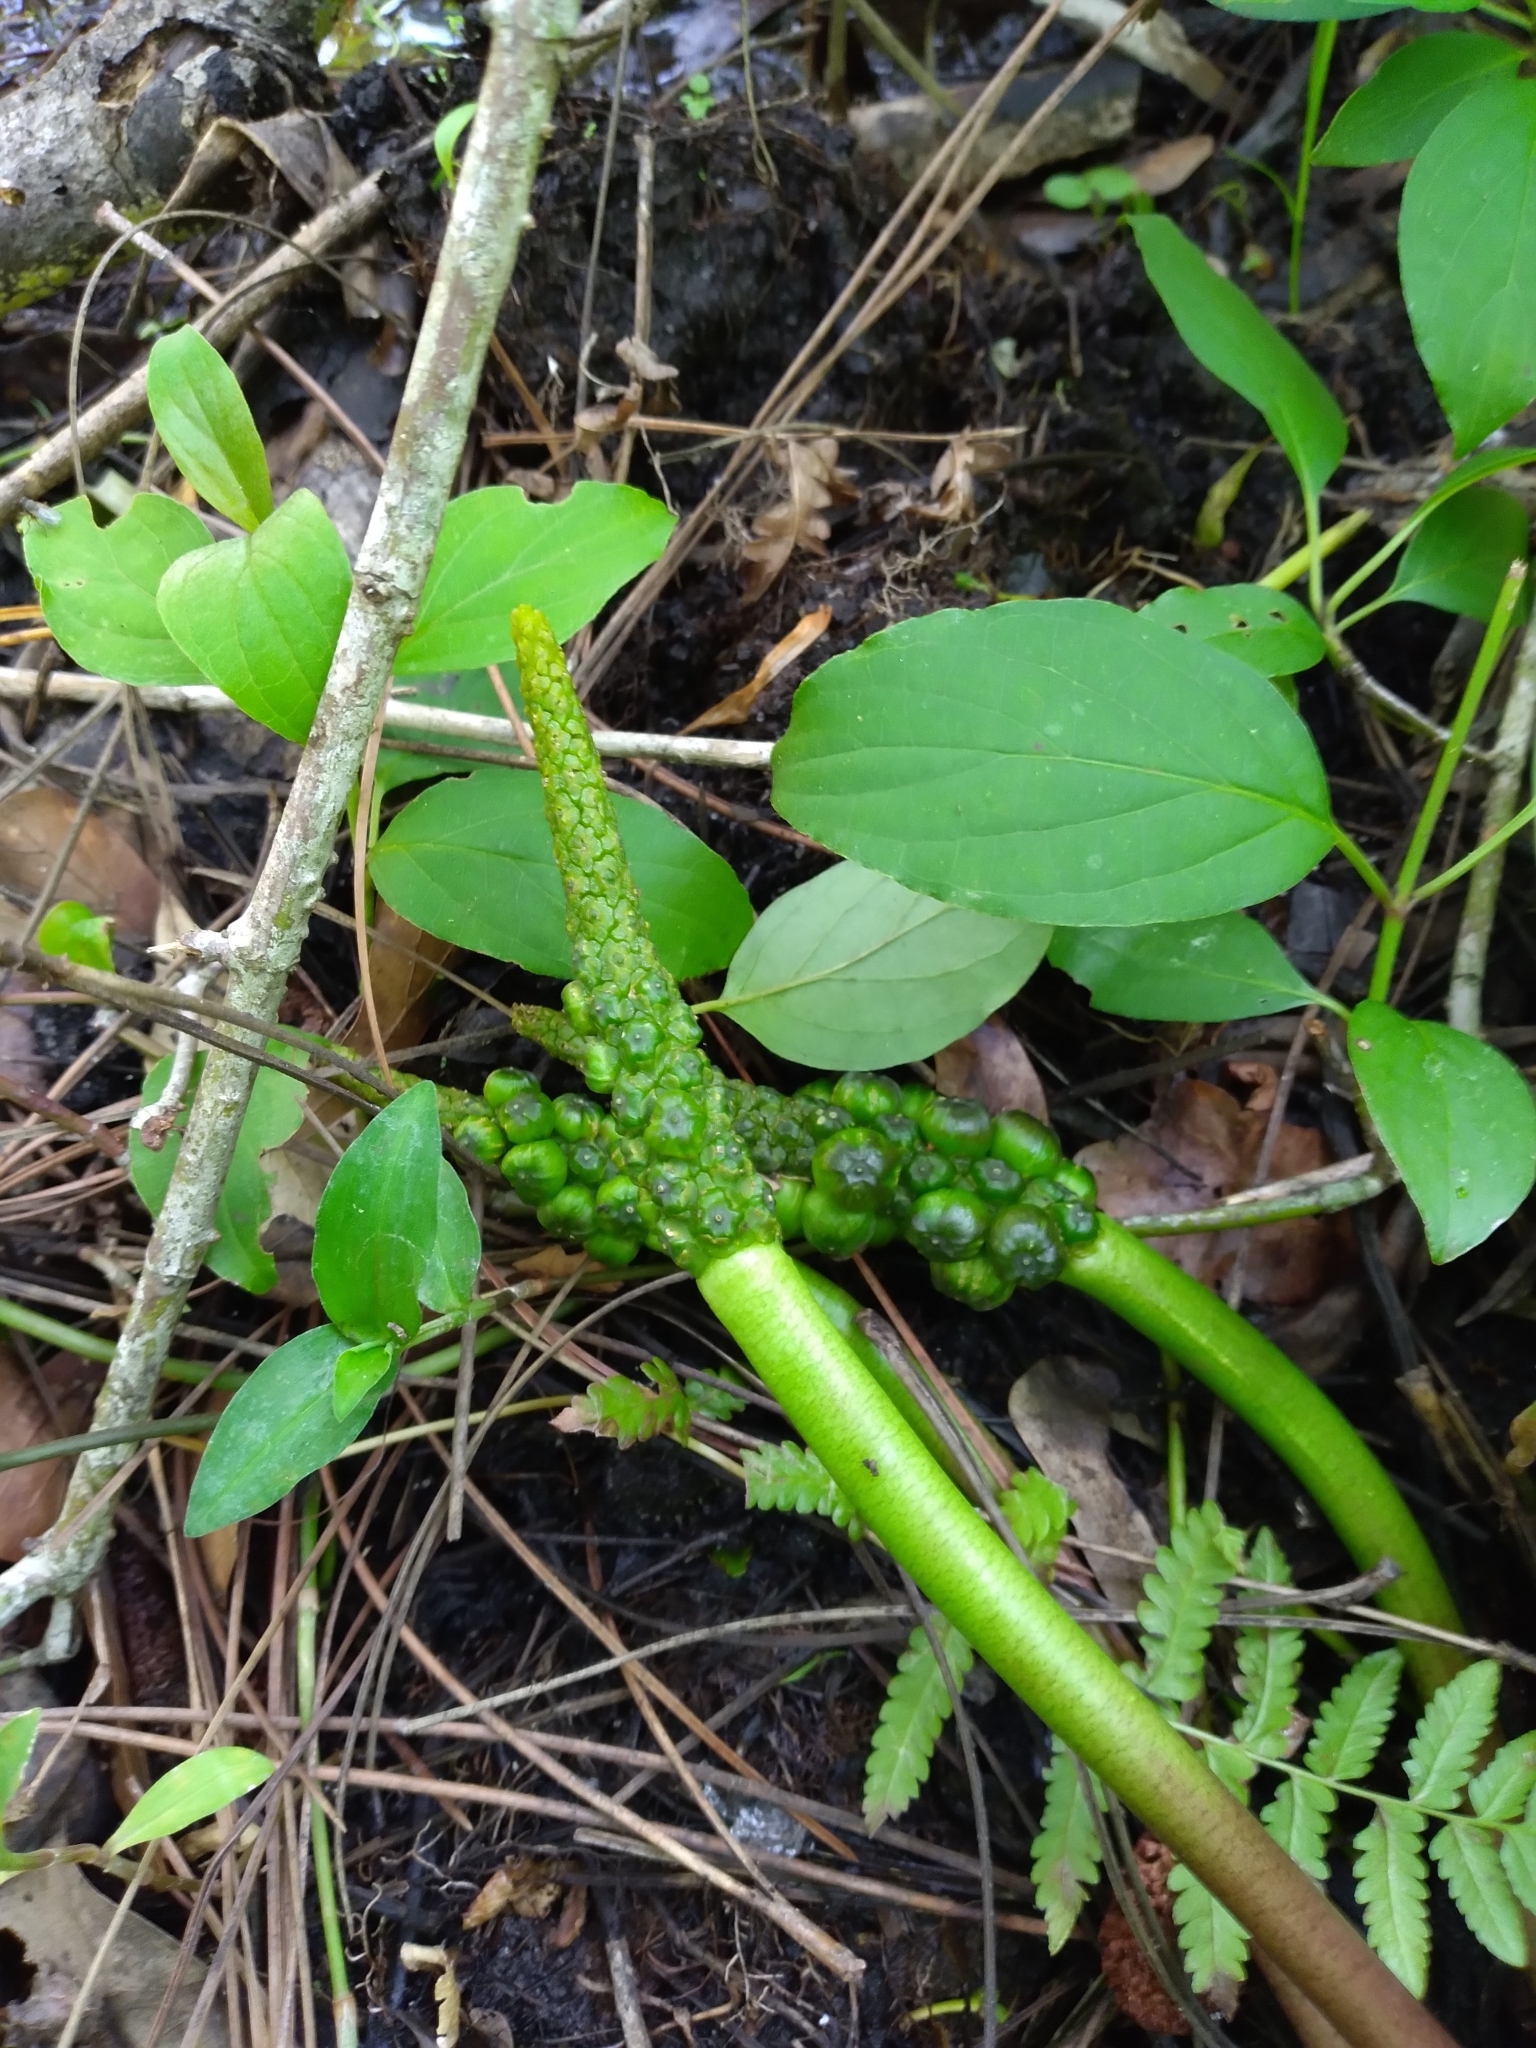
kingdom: Plantae
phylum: Tracheophyta
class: Liliopsida
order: Alismatales
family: Araceae
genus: Orontium
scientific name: Orontium aquaticum
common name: Golden-club
